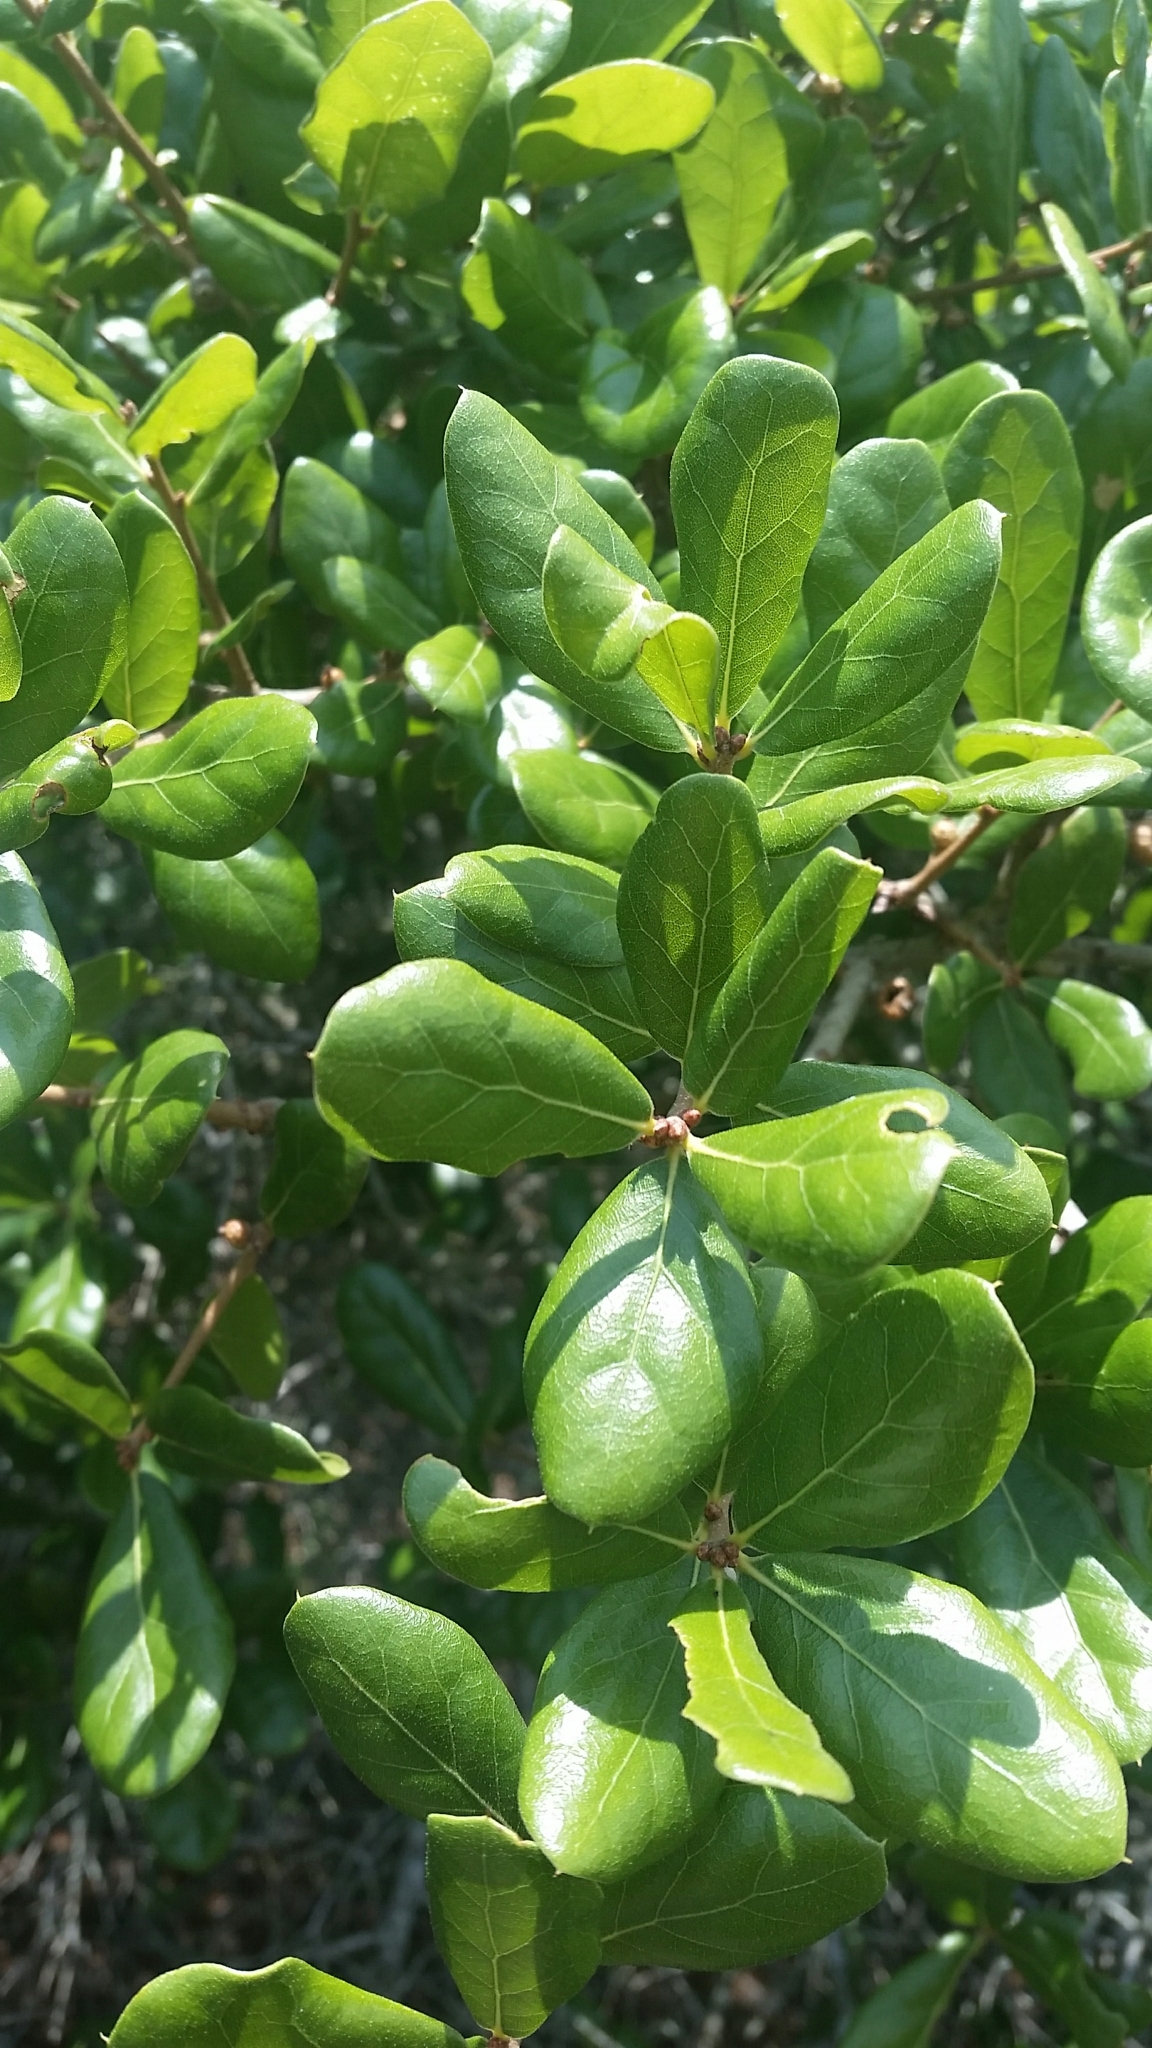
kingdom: Plantae
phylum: Tracheophyta
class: Magnoliopsida
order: Fagales
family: Fagaceae
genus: Quercus
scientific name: Quercus myrtifolia
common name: Myrtle oak
